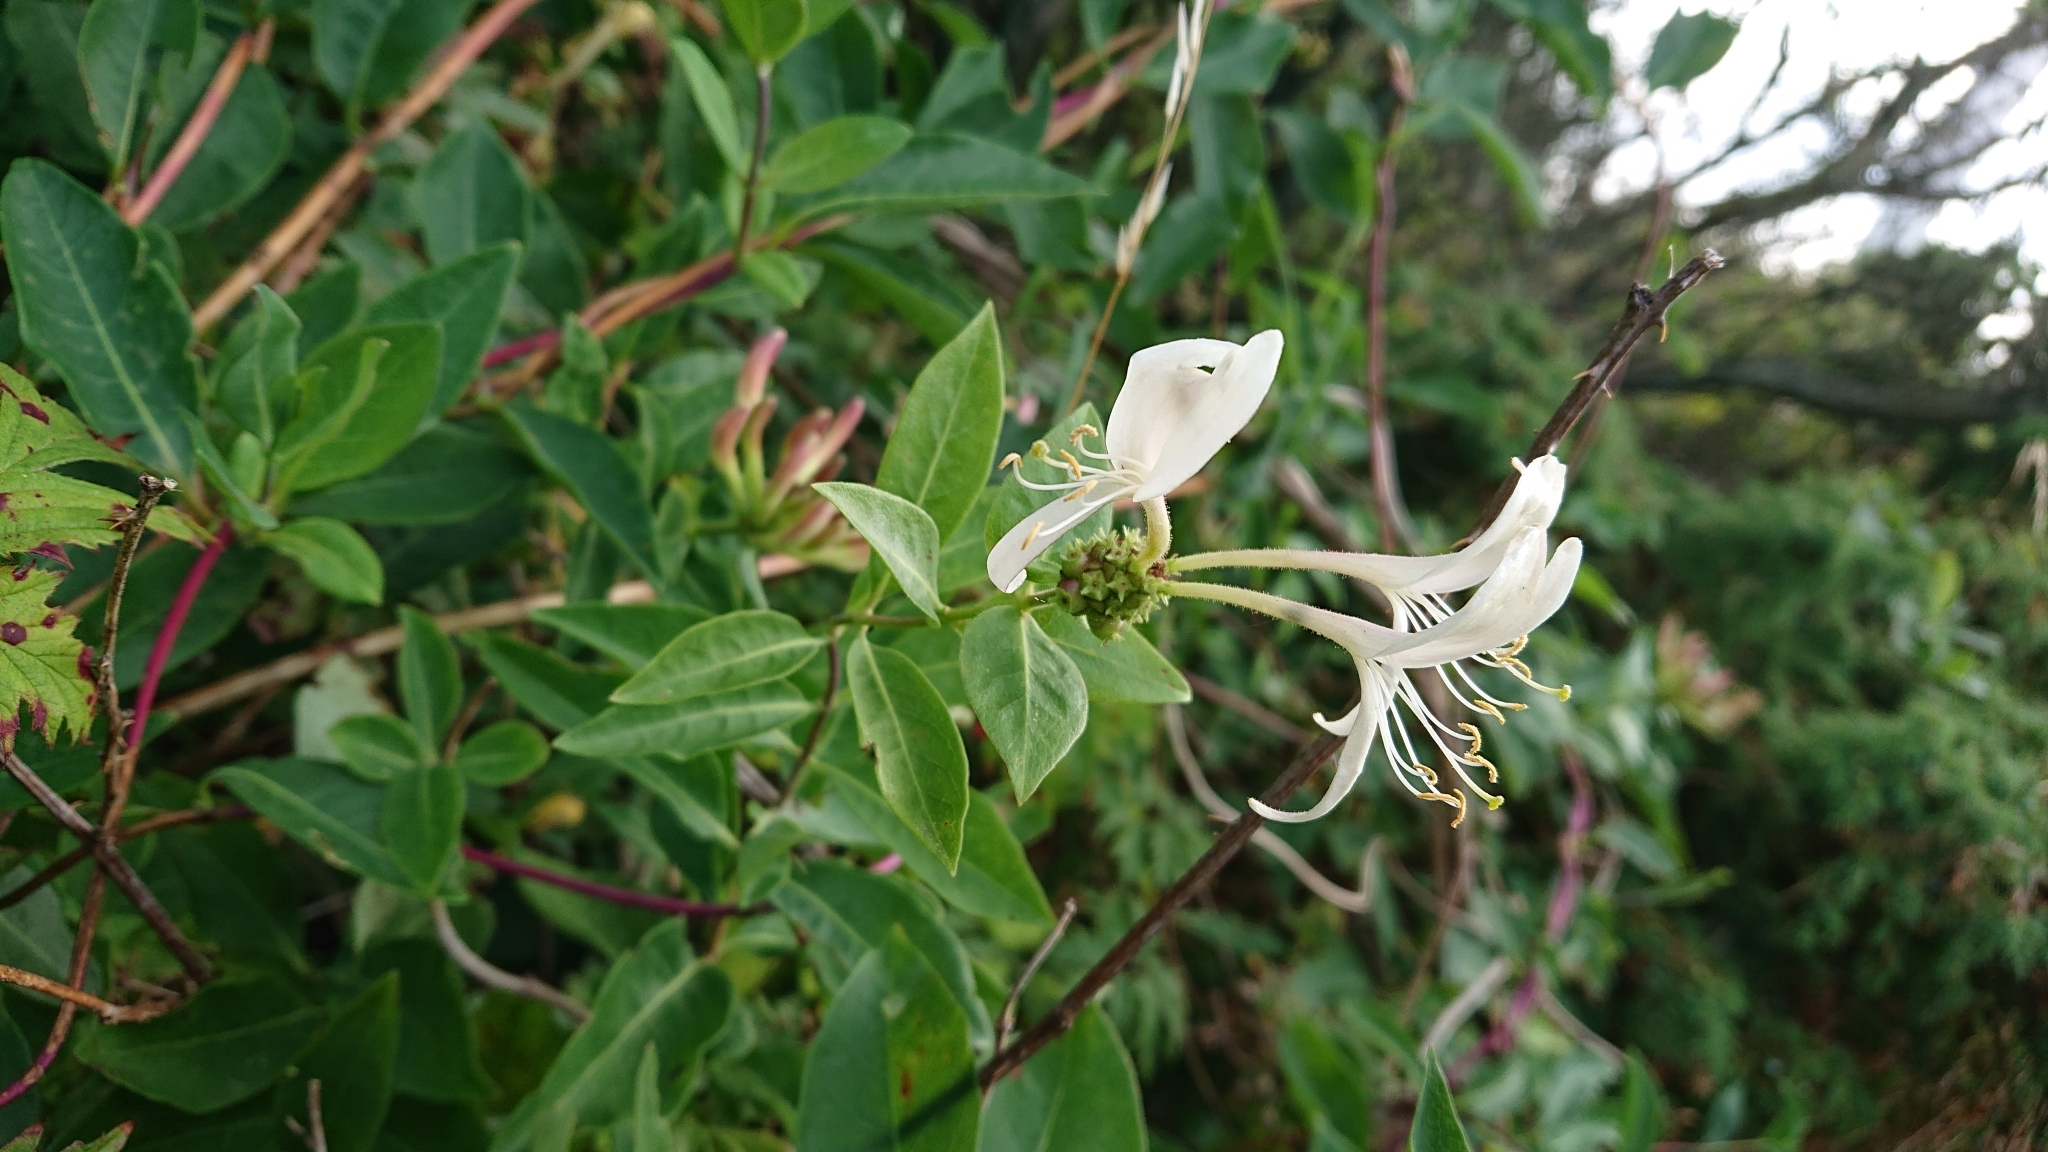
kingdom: Plantae
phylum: Tracheophyta
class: Magnoliopsida
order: Dipsacales
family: Caprifoliaceae
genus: Lonicera
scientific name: Lonicera periclymenum
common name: European honeysuckle
